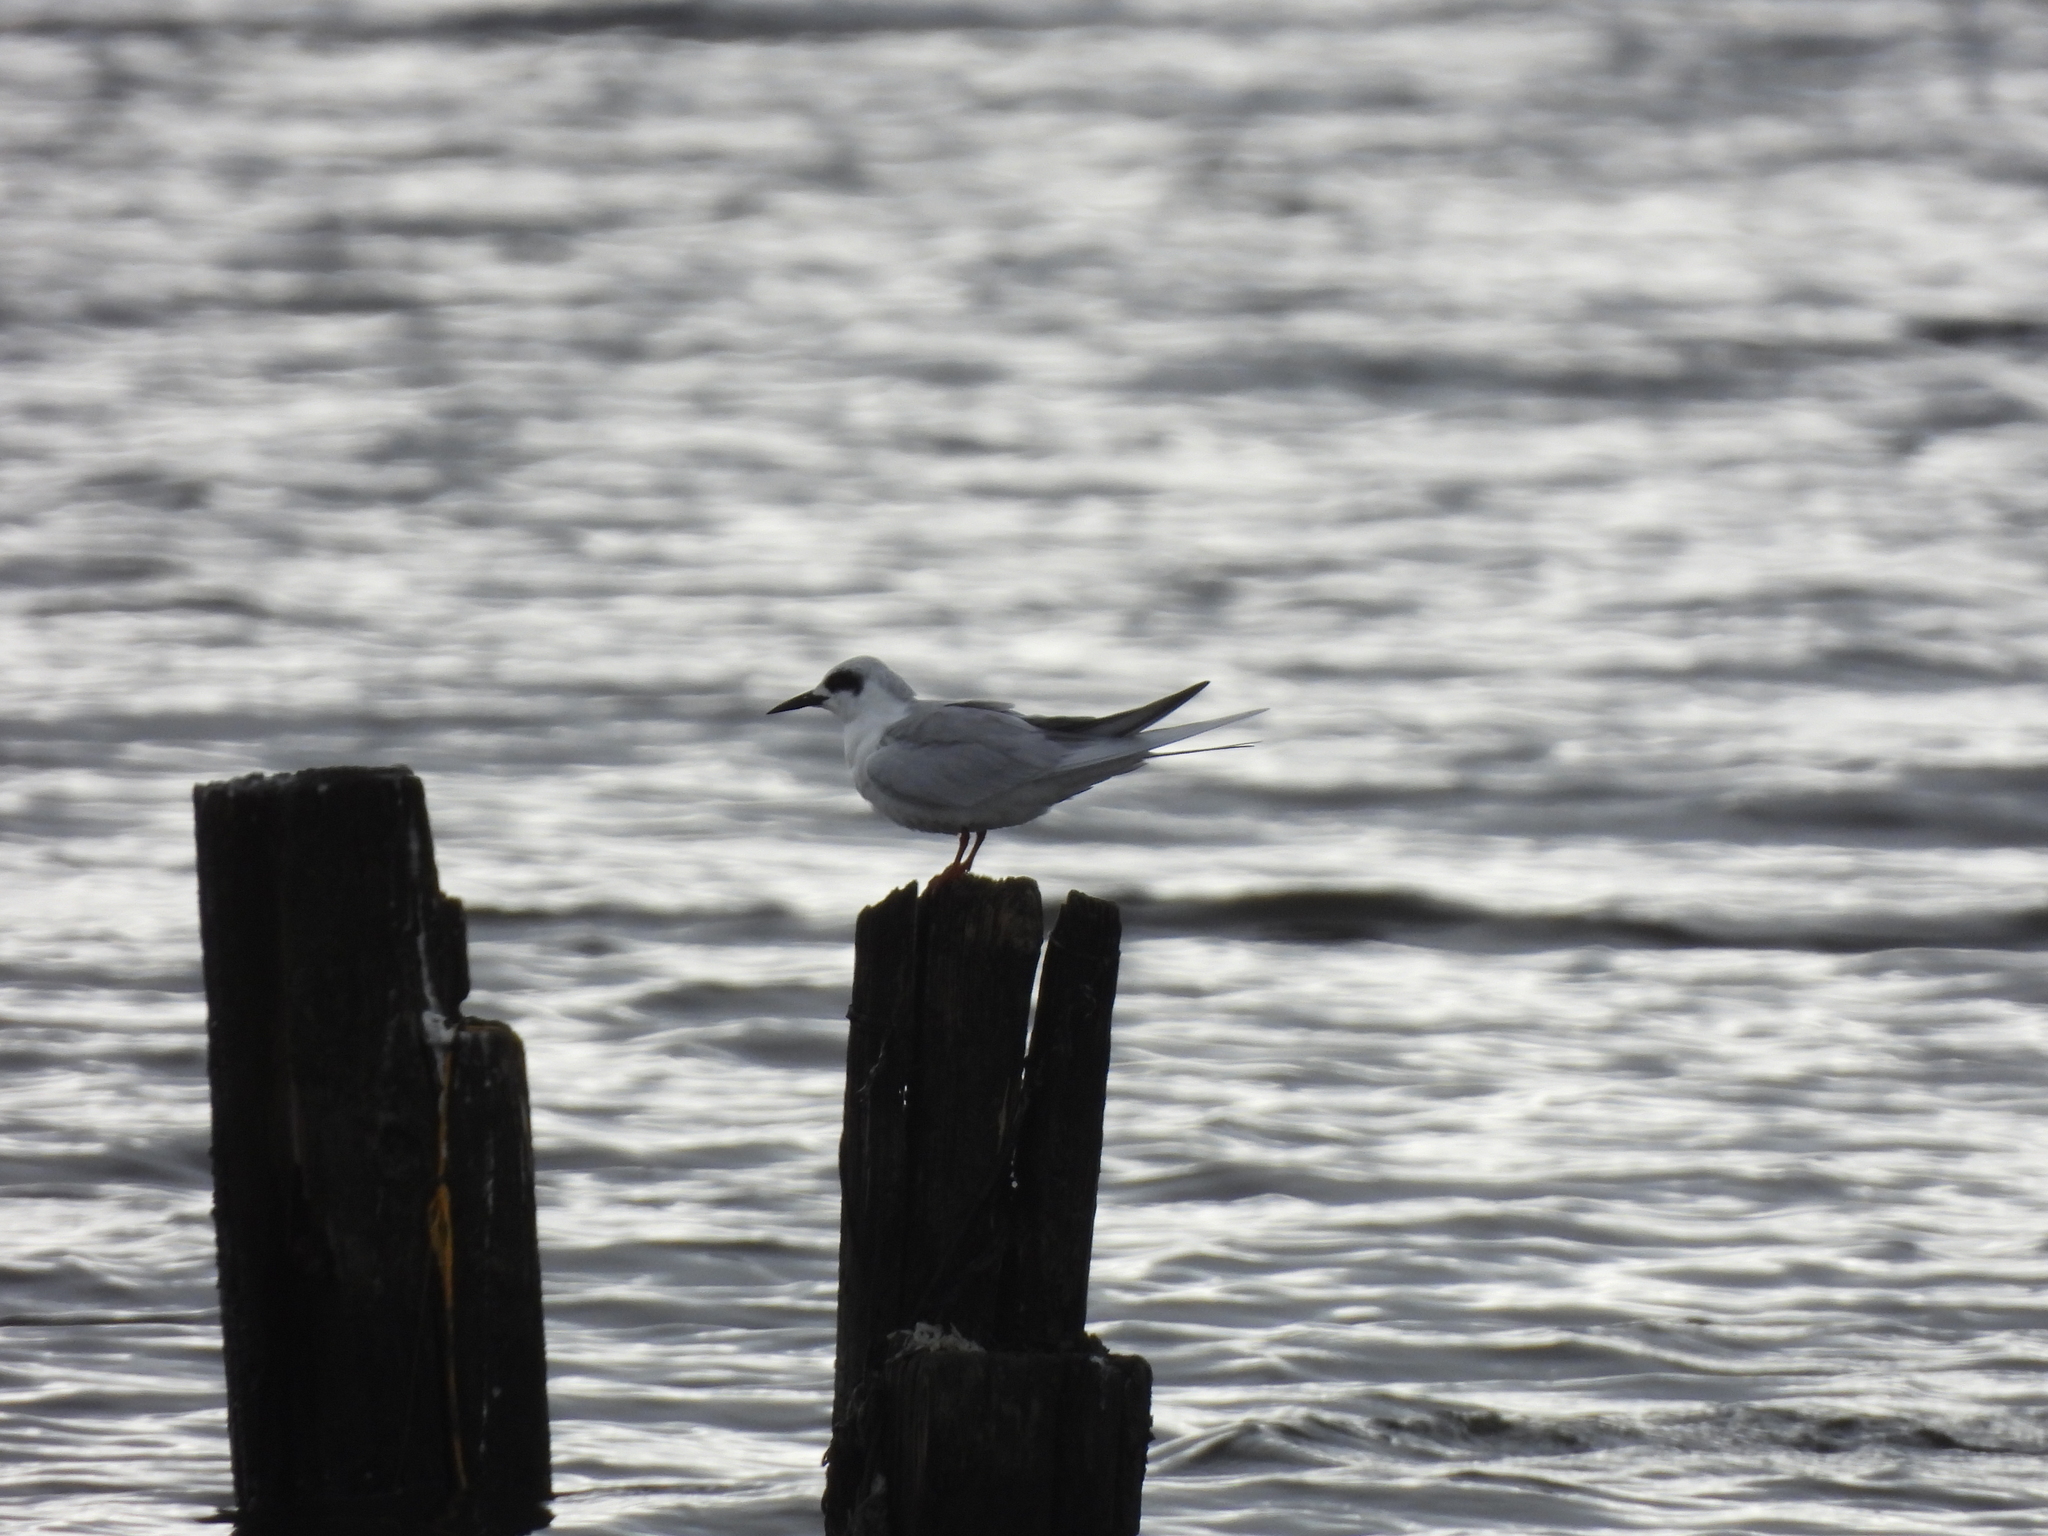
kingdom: Animalia
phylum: Chordata
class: Aves
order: Charadriiformes
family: Laridae
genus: Sterna
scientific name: Sterna forsteri
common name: Forster's tern
